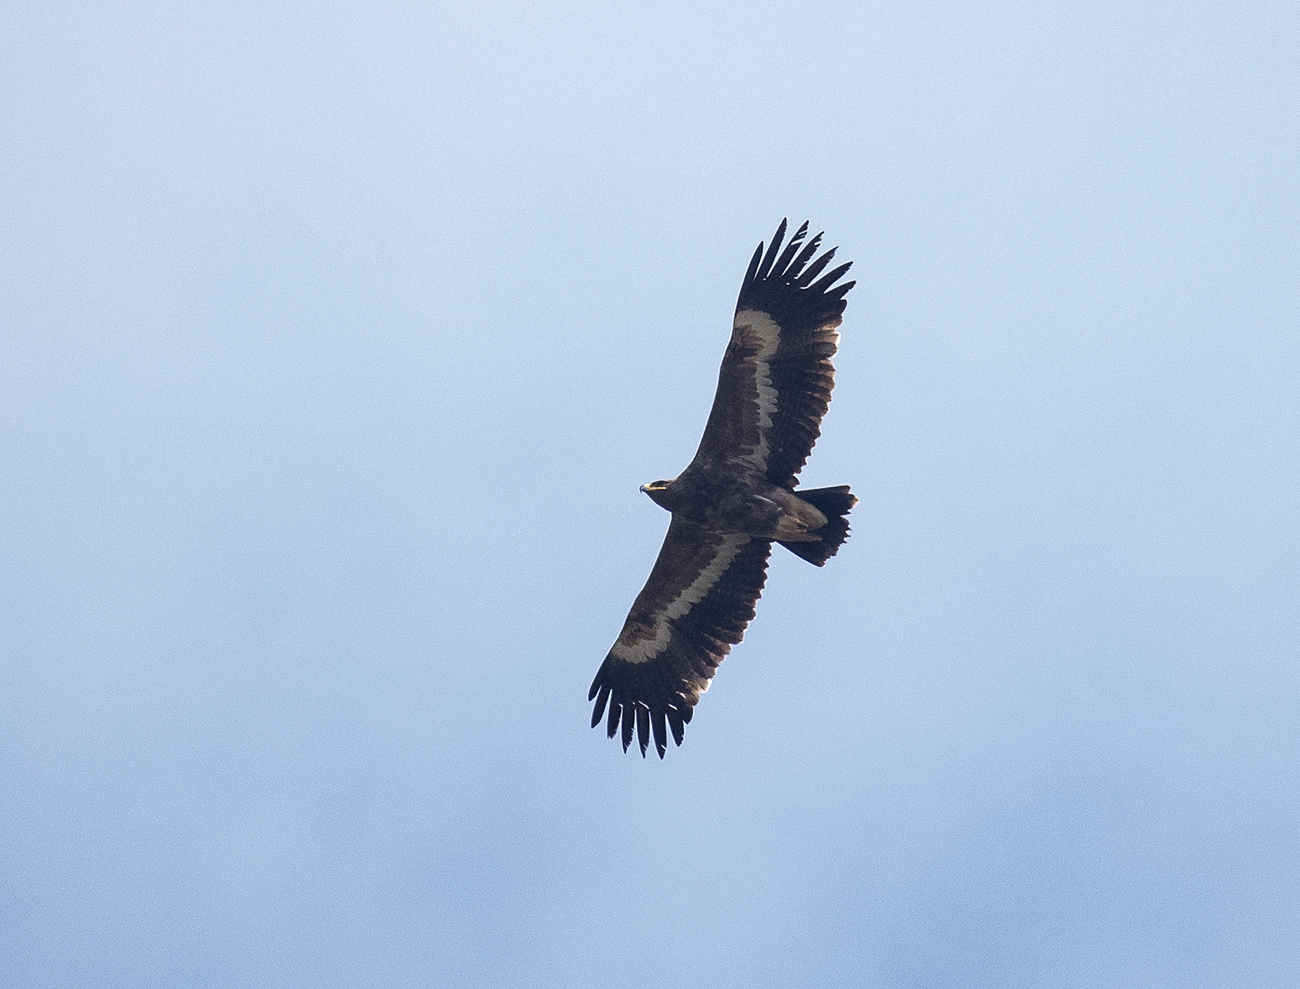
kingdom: Animalia
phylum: Chordata
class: Aves
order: Accipitriformes
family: Accipitridae
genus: Aquila
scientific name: Aquila nipalensis
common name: Steppe eagle
